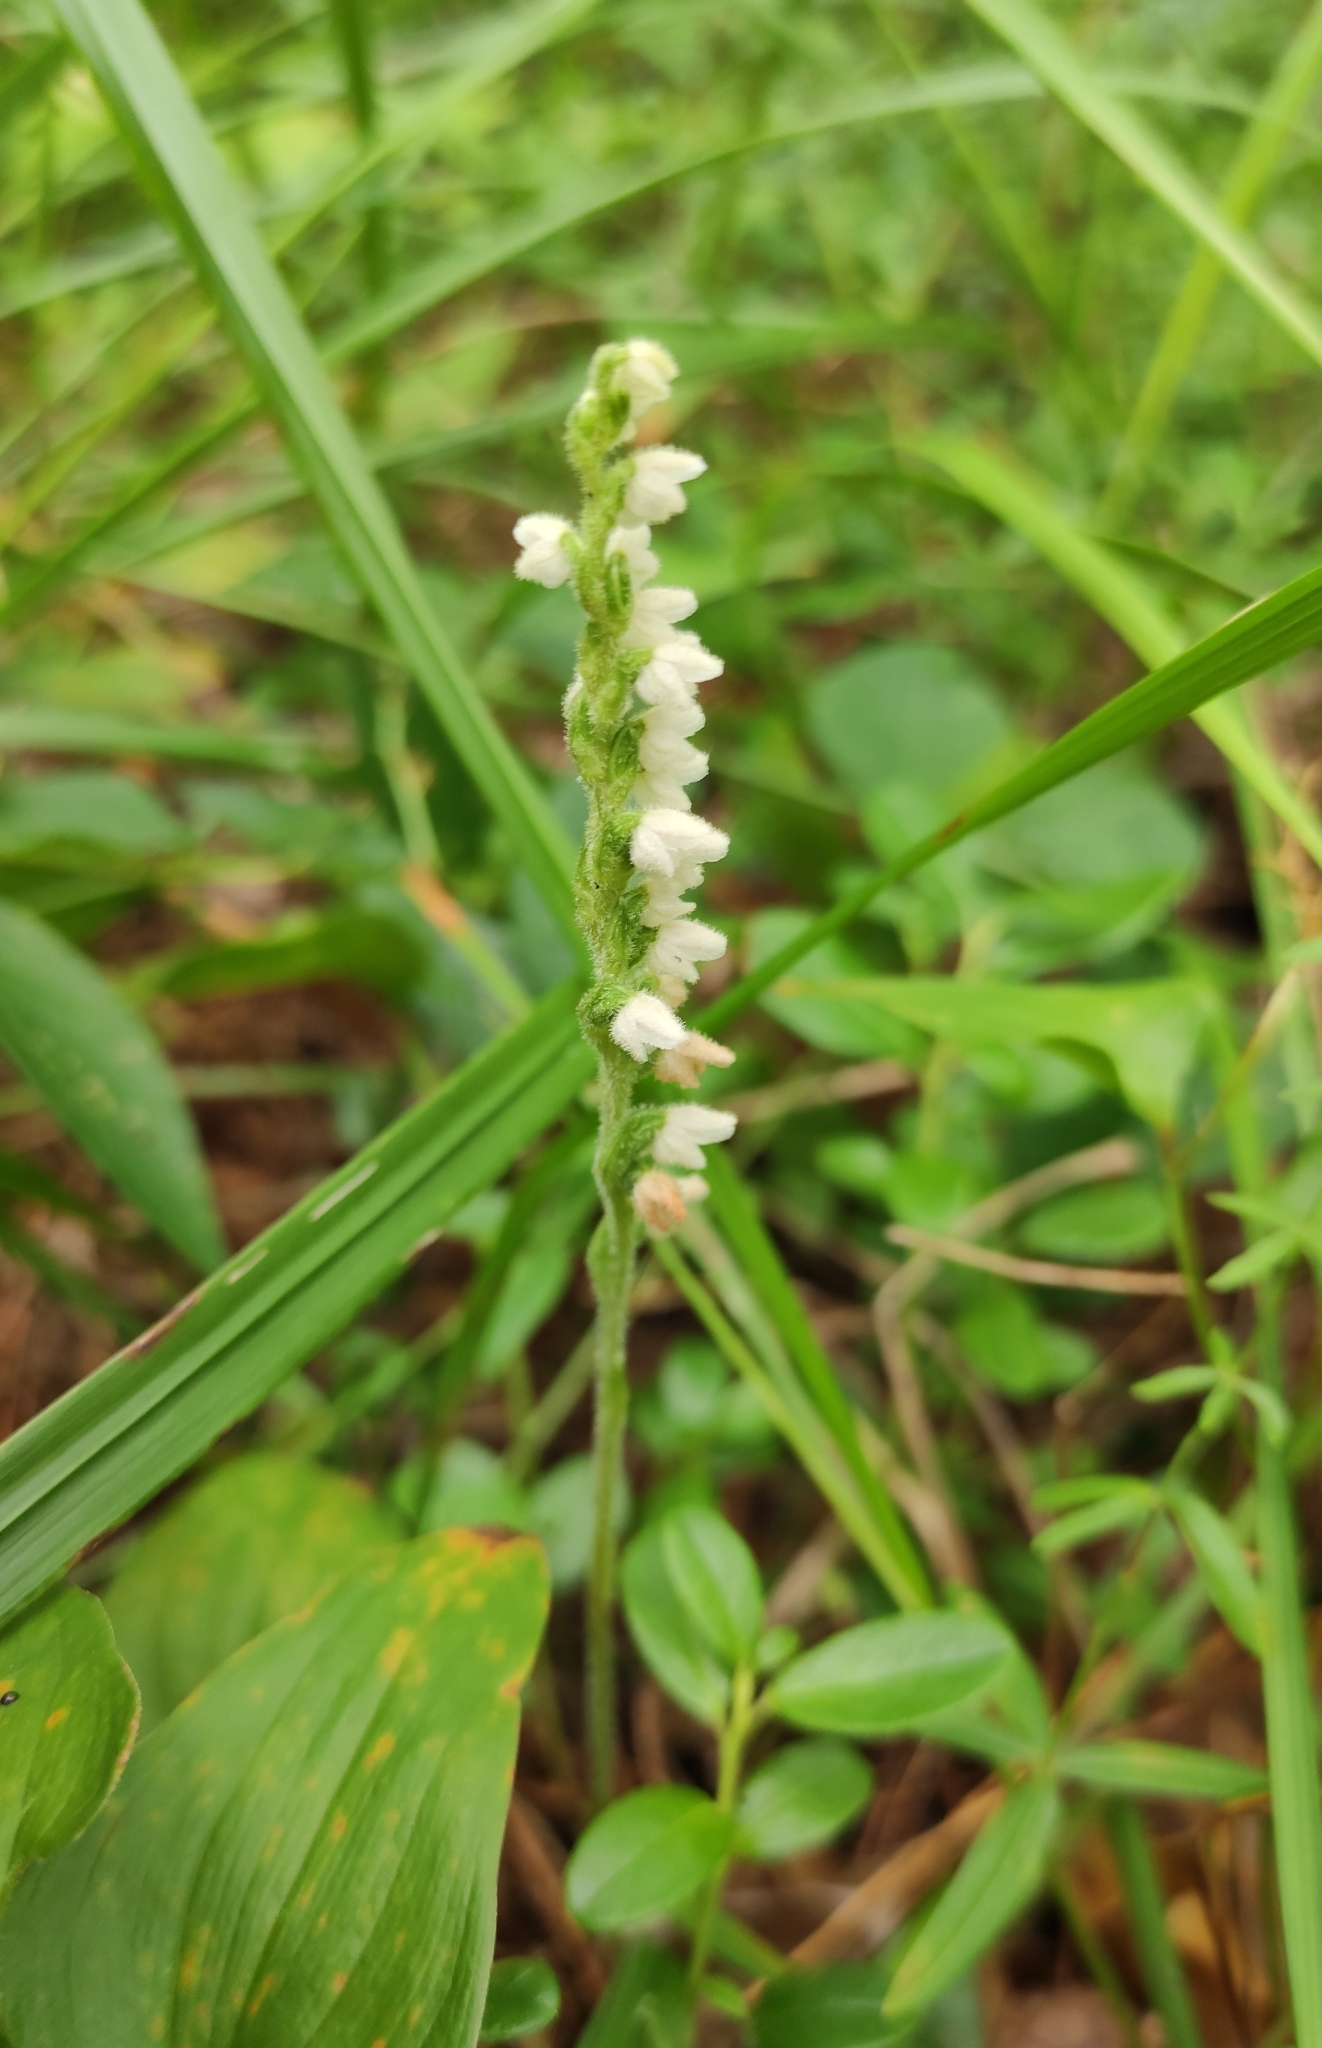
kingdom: Plantae
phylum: Tracheophyta
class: Liliopsida
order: Asparagales
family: Orchidaceae
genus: Goodyera
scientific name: Goodyera repens
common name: Creeping lady's-tresses
